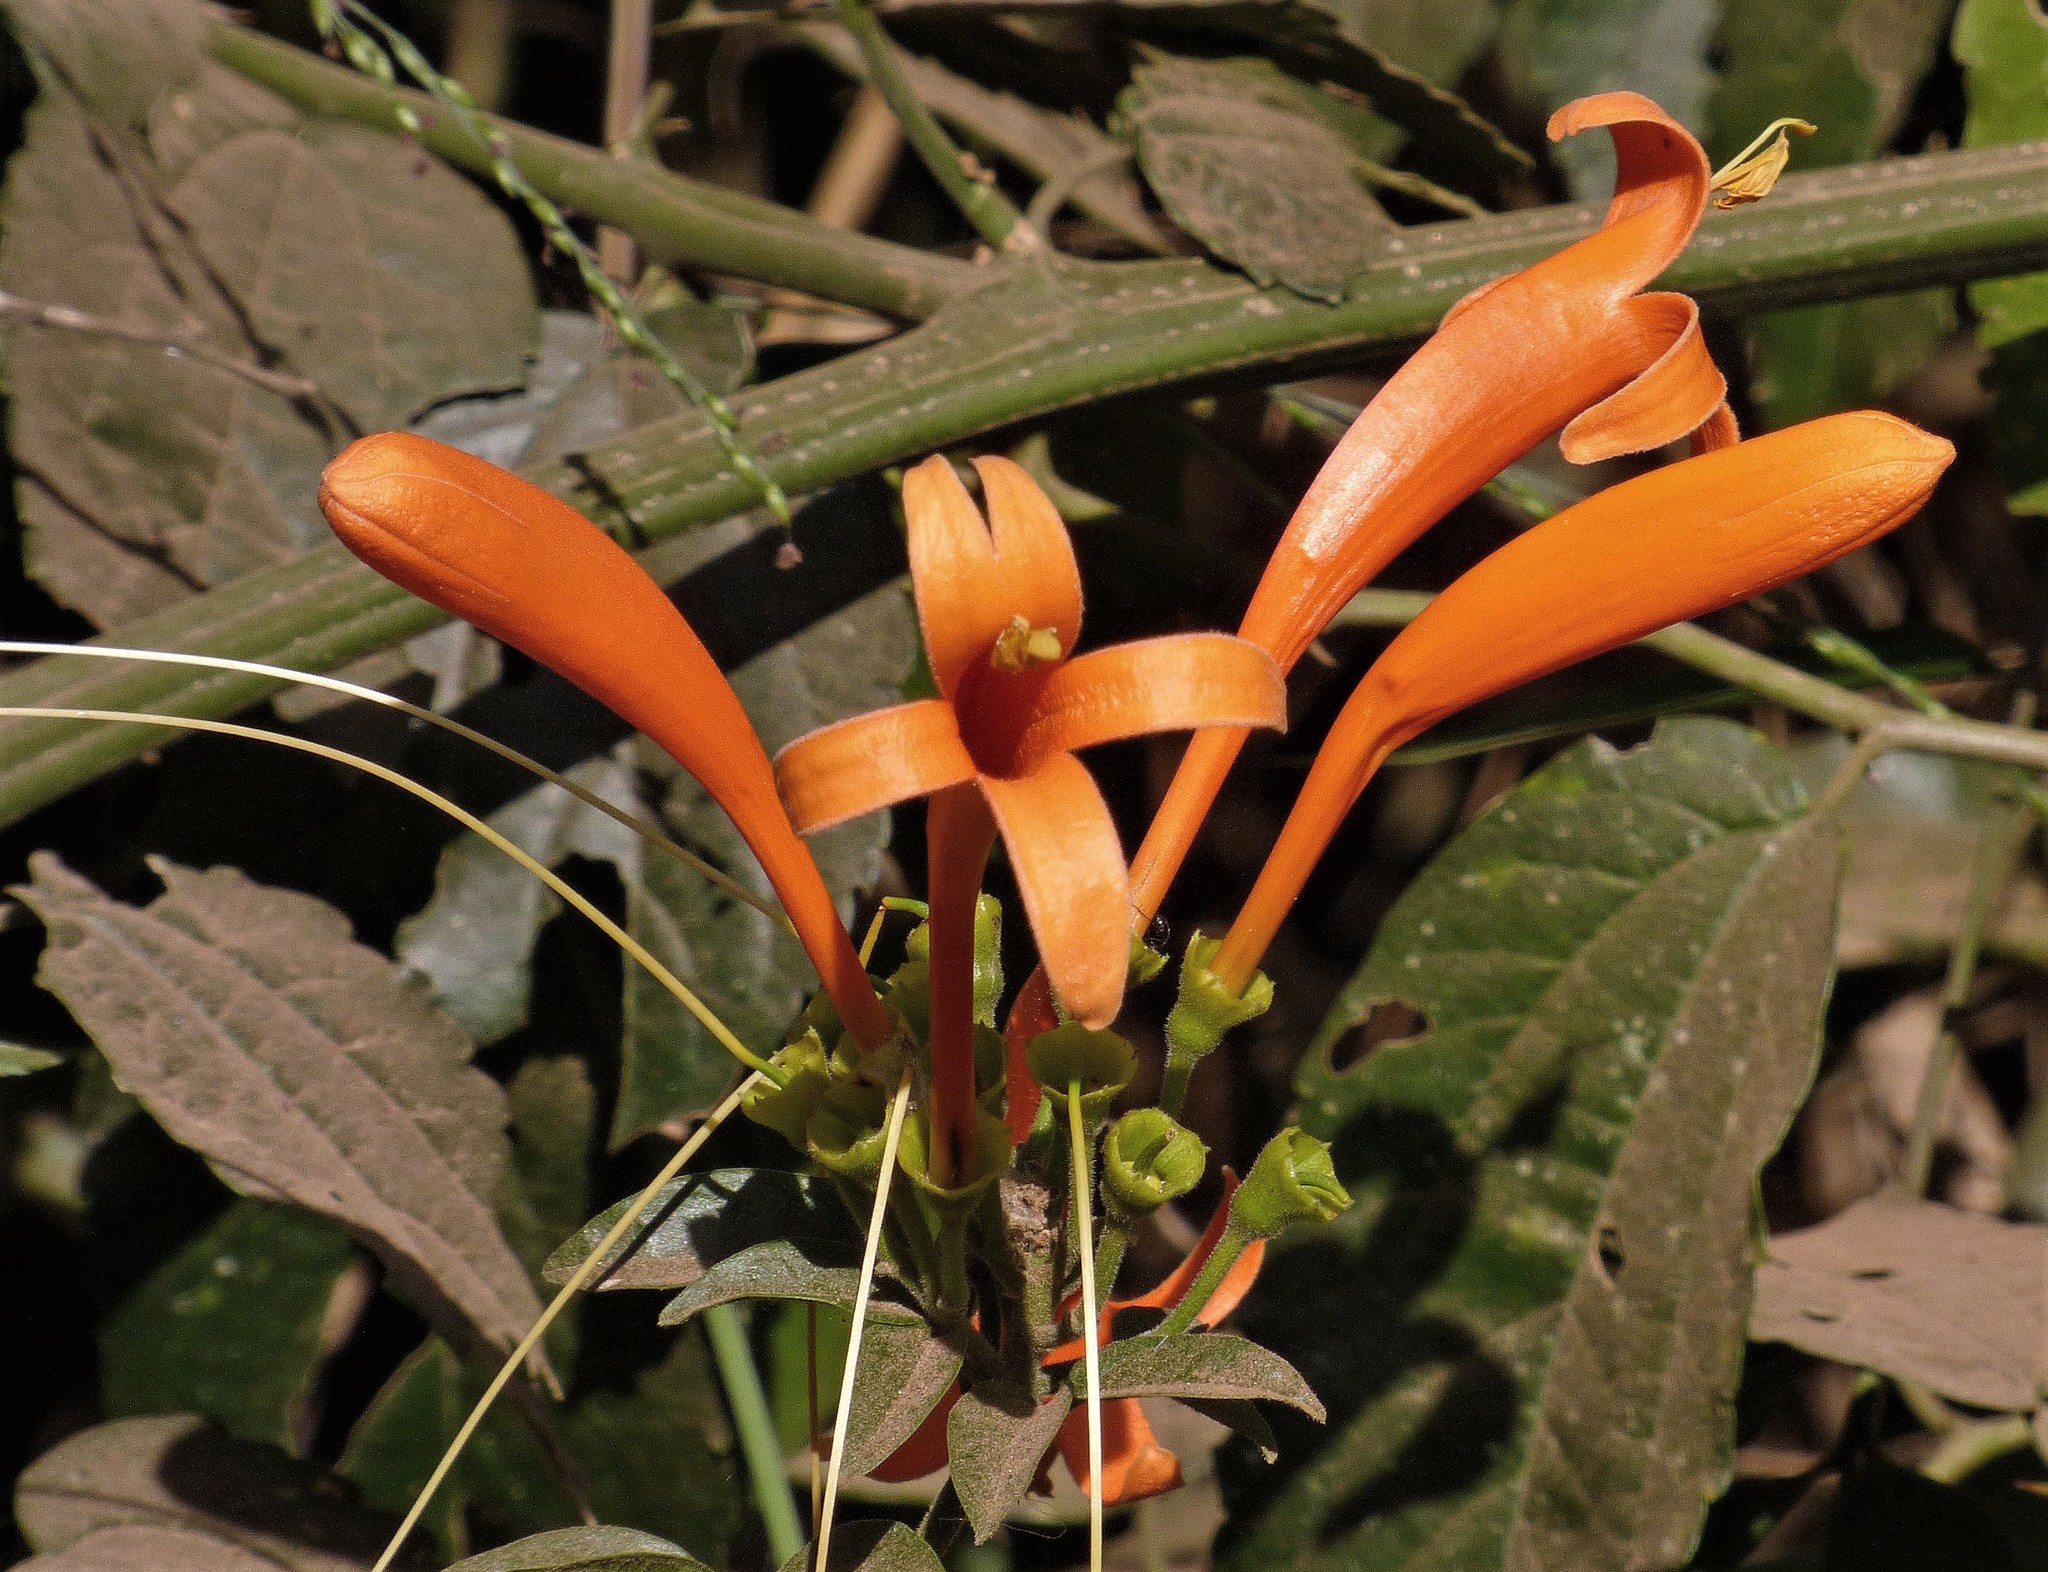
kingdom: Plantae
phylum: Tracheophyta
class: Magnoliopsida
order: Lamiales
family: Bignoniaceae
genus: Pyrostegia
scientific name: Pyrostegia venusta
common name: Flamevine
